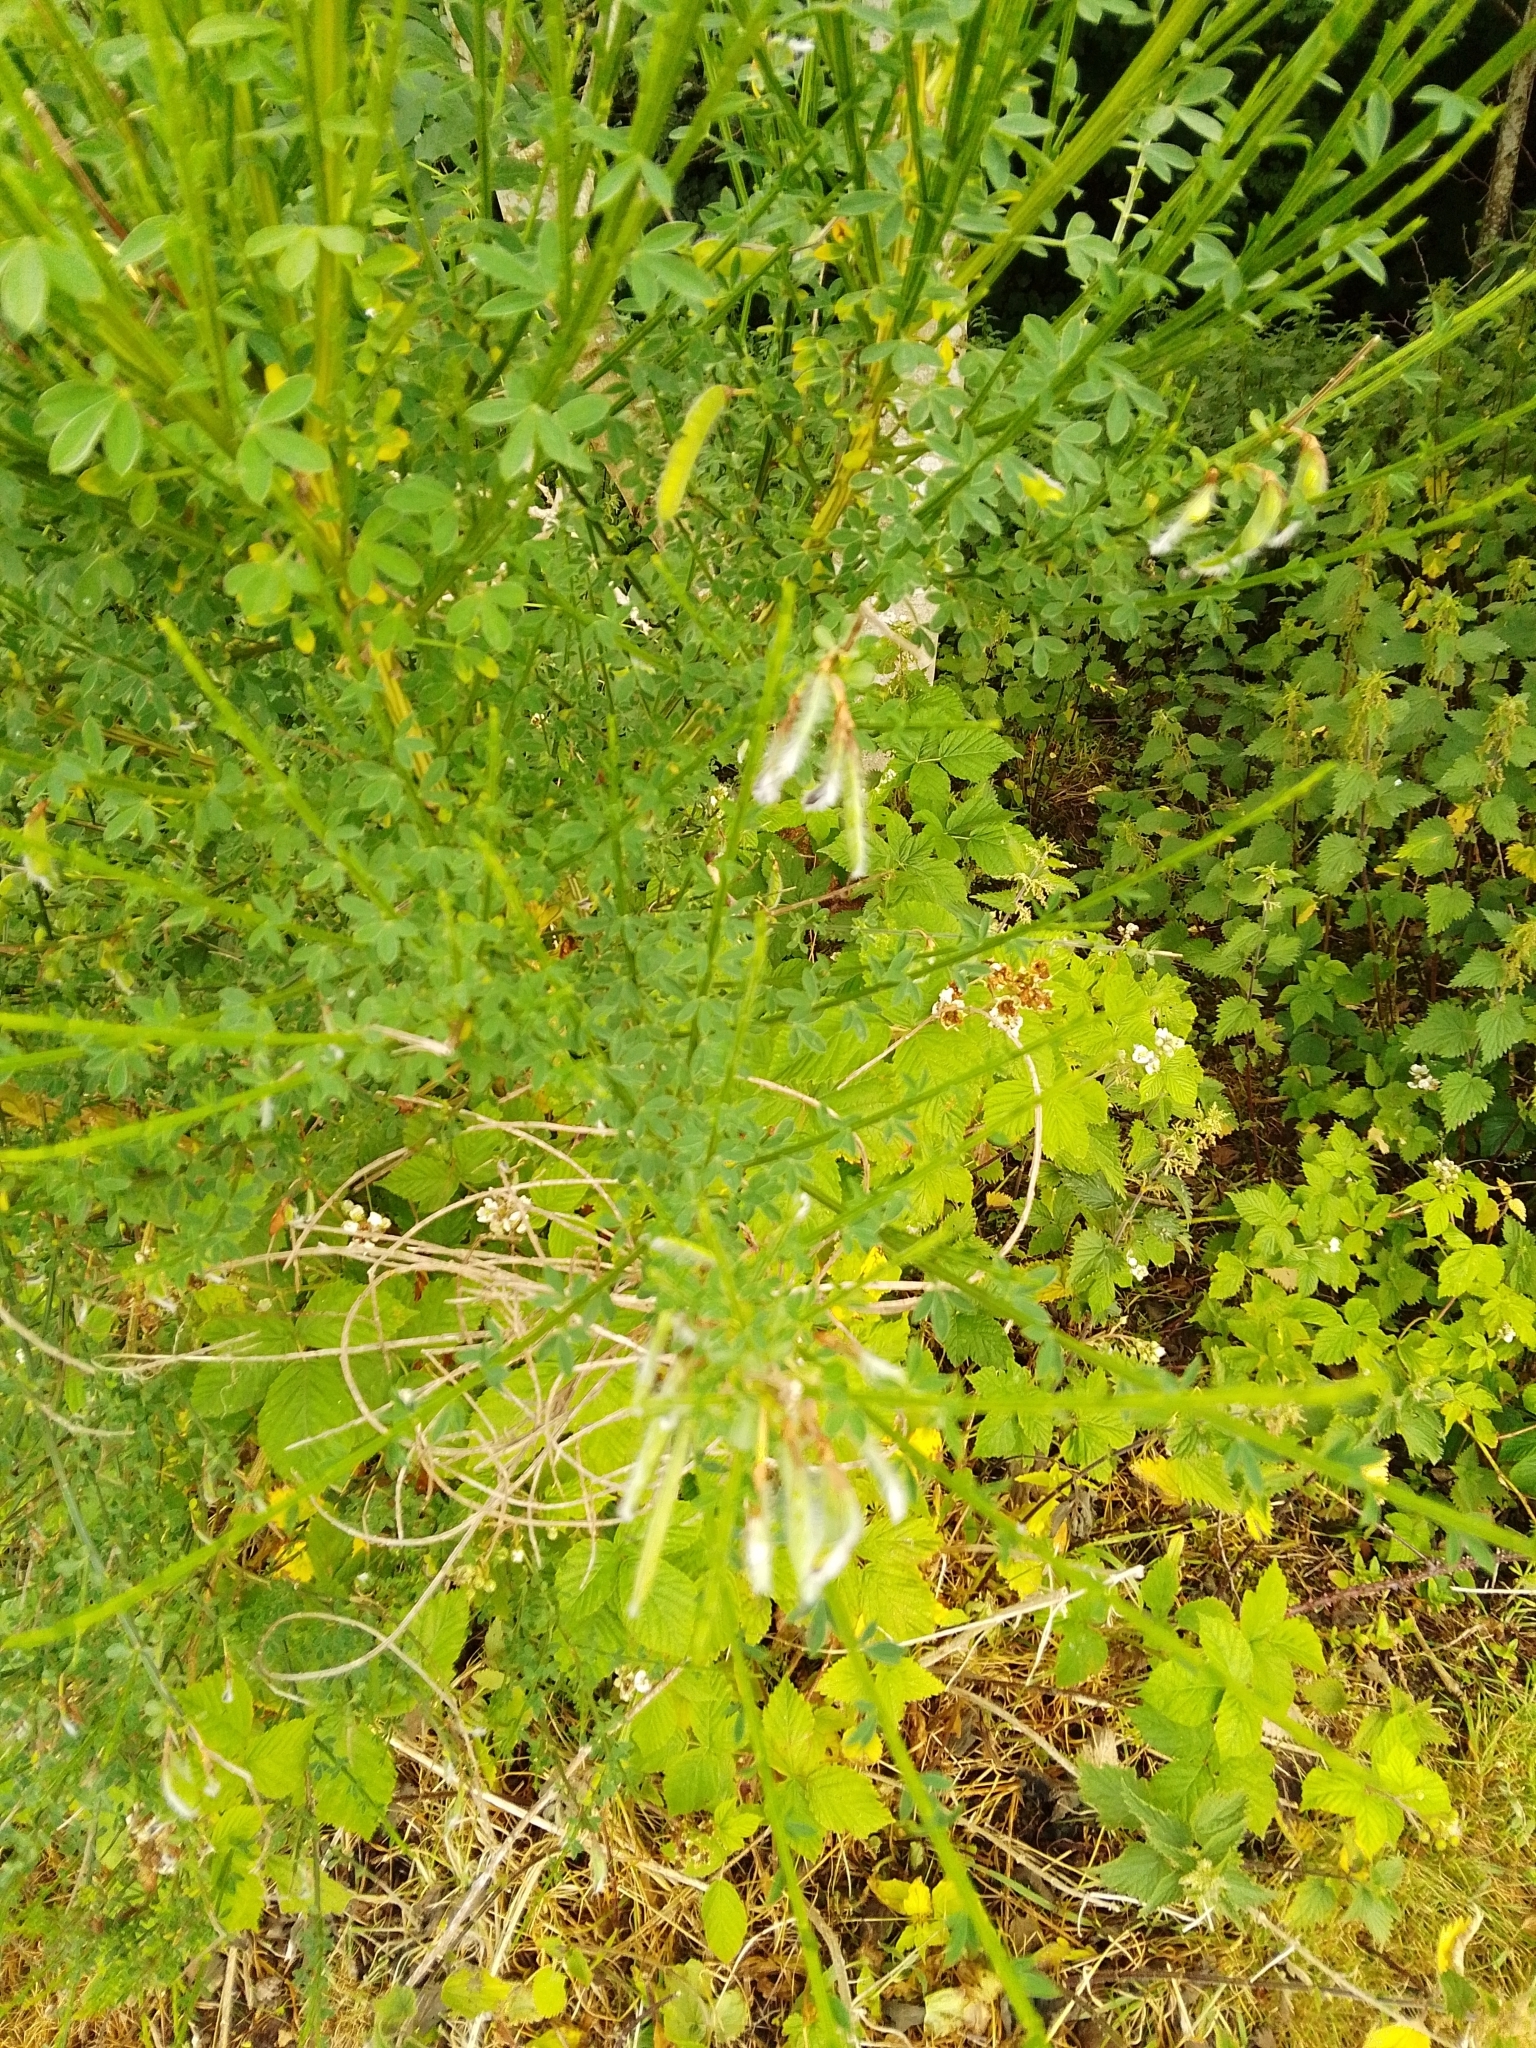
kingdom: Plantae
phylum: Tracheophyta
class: Magnoliopsida
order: Fabales
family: Fabaceae
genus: Cytisus
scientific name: Cytisus scoparius
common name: Scotch broom
